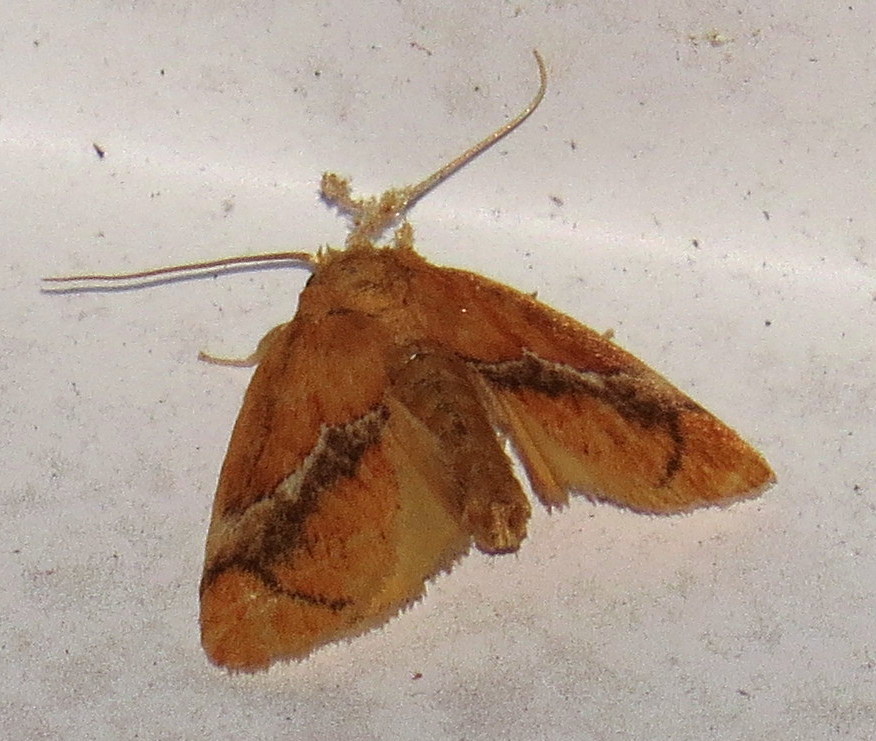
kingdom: Animalia
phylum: Arthropoda
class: Insecta
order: Lepidoptera
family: Limacodidae
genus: Lithacodes
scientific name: Lithacodes fasciola
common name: Yellow-shouldered slug moth
